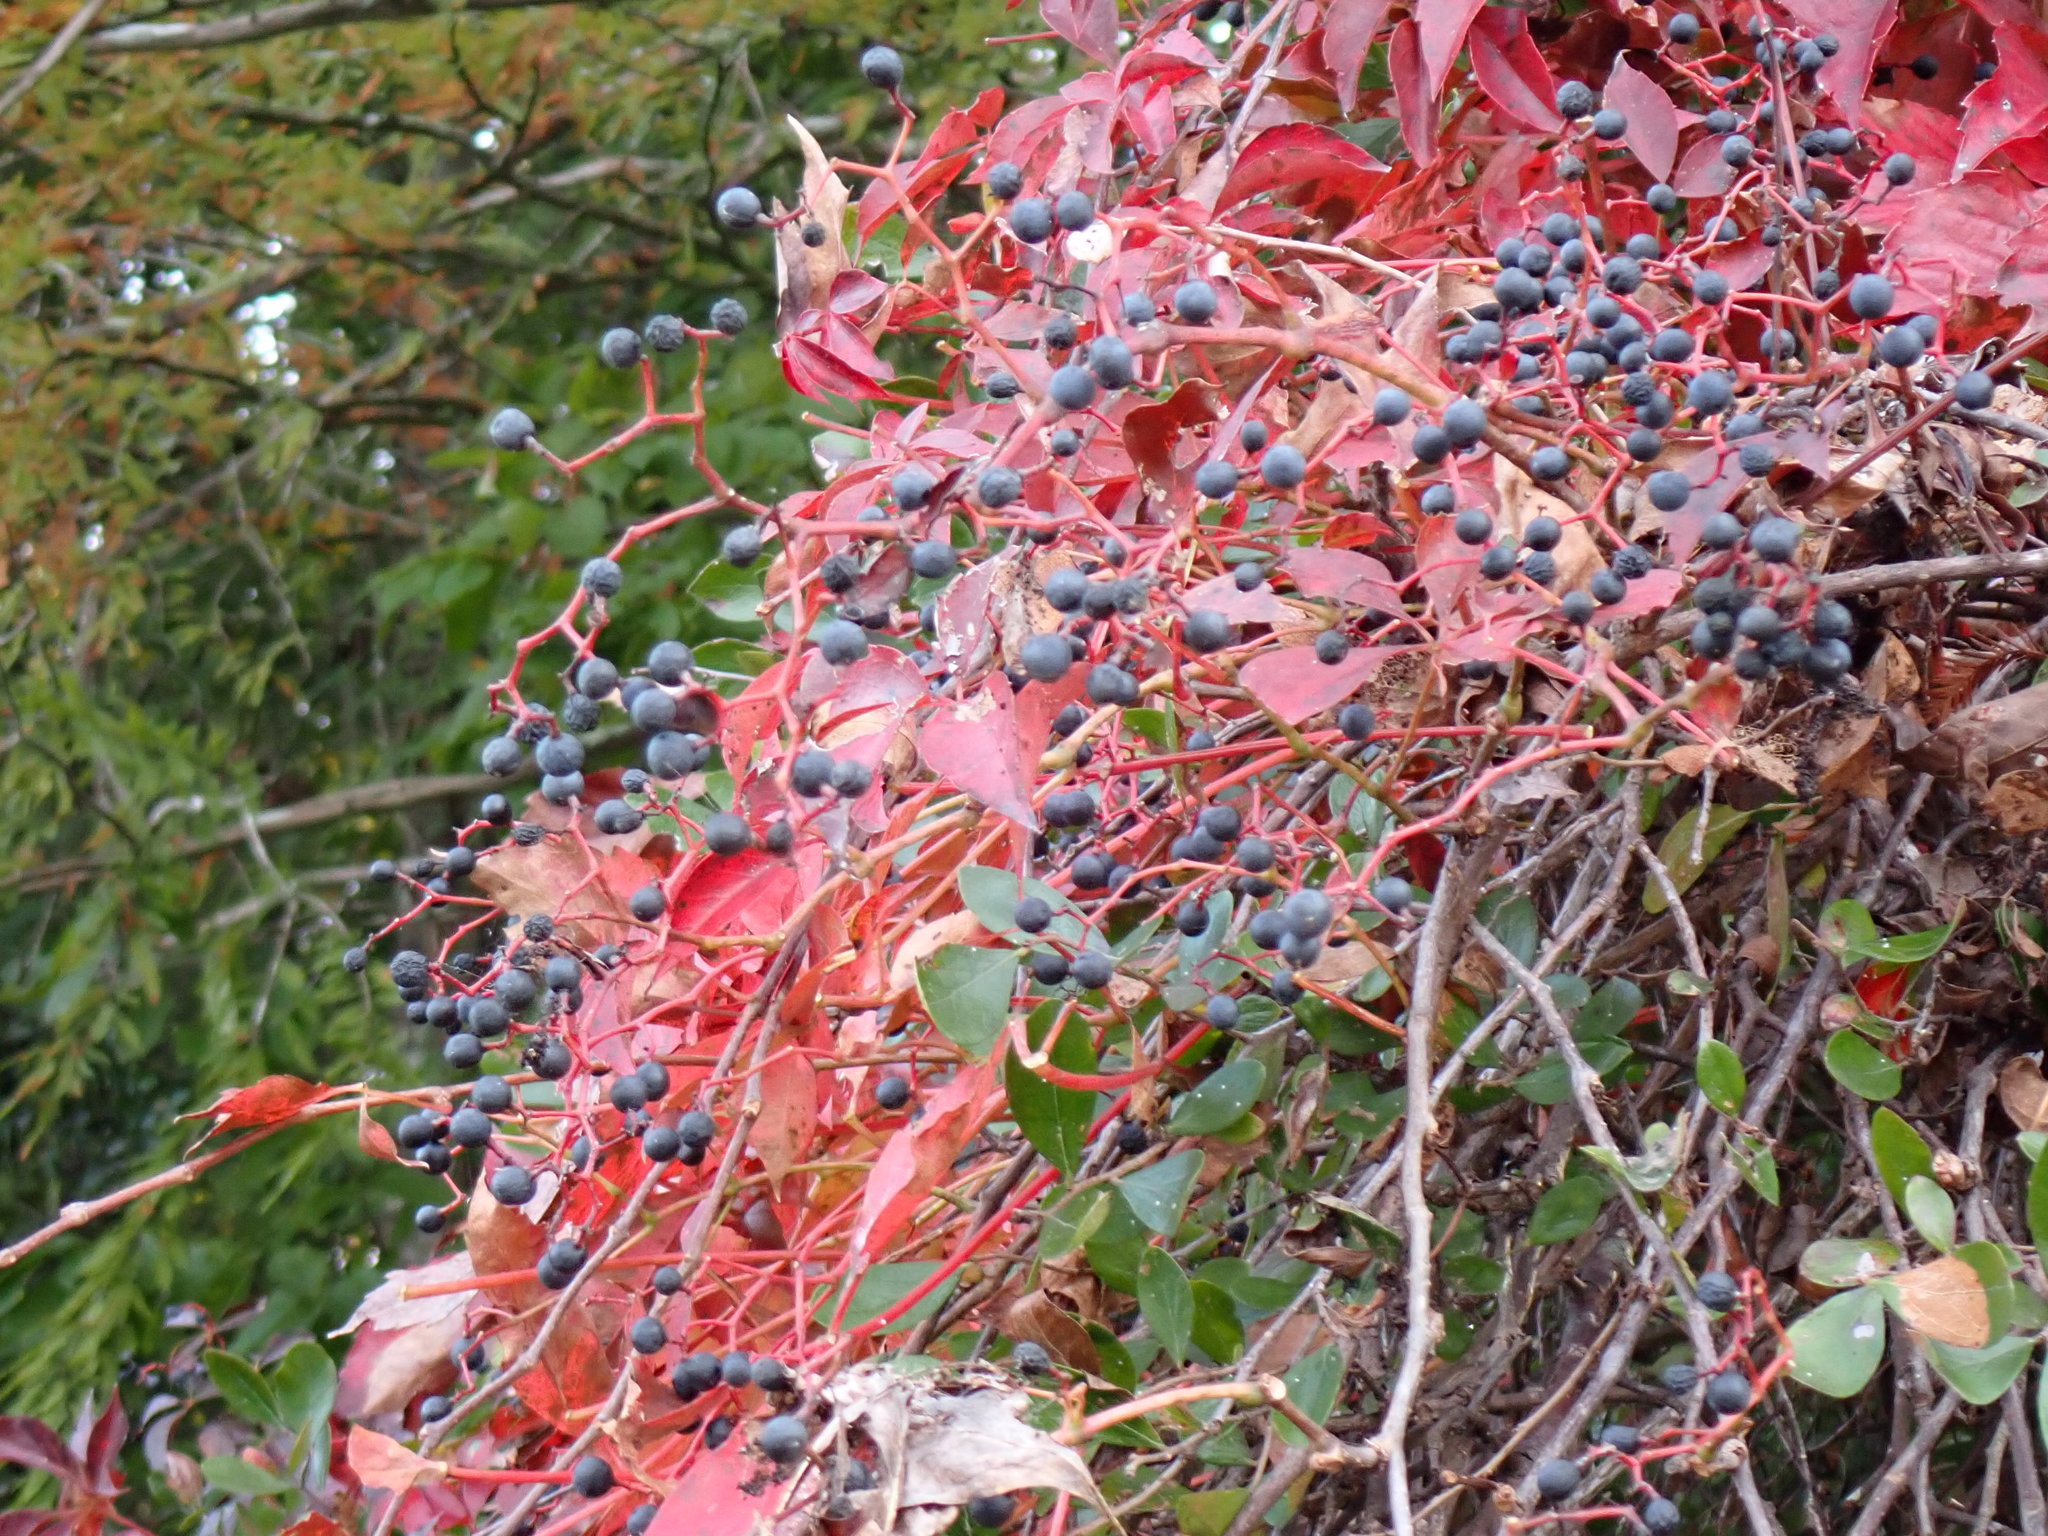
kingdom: Plantae
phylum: Tracheophyta
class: Magnoliopsida
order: Vitales
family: Vitaceae
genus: Parthenocissus
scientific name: Parthenocissus quinquefolia
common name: Virginia-creeper
